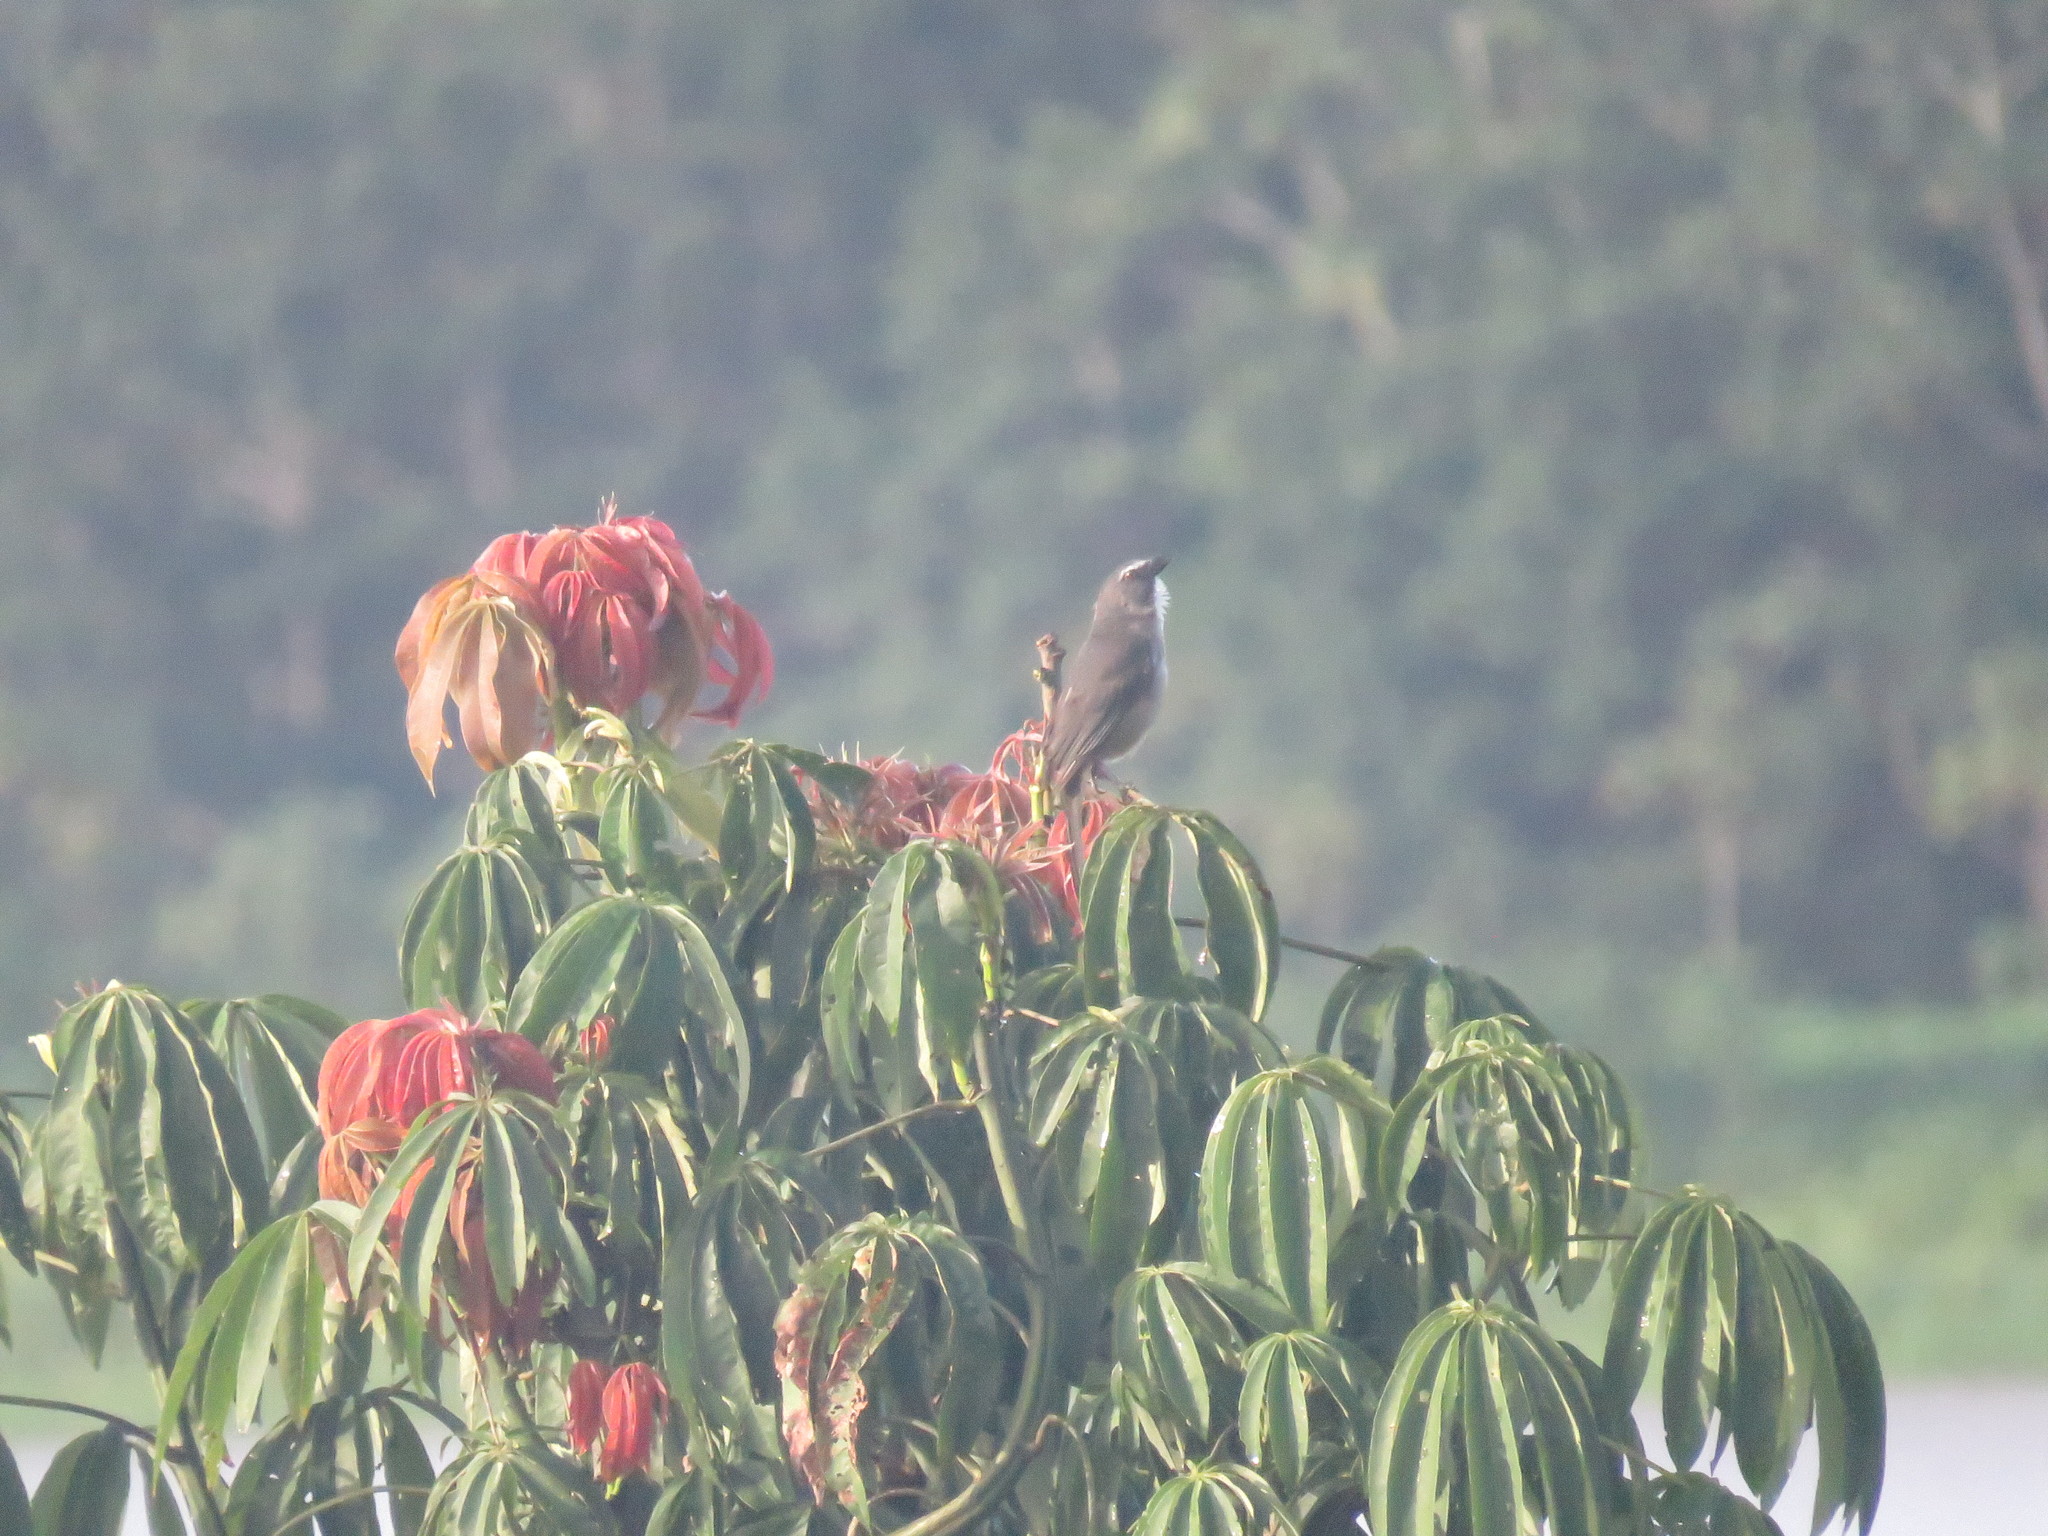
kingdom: Animalia
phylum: Chordata
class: Aves
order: Passeriformes
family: Thraupidae
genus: Saltator
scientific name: Saltator coerulescens
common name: Grayish saltator
